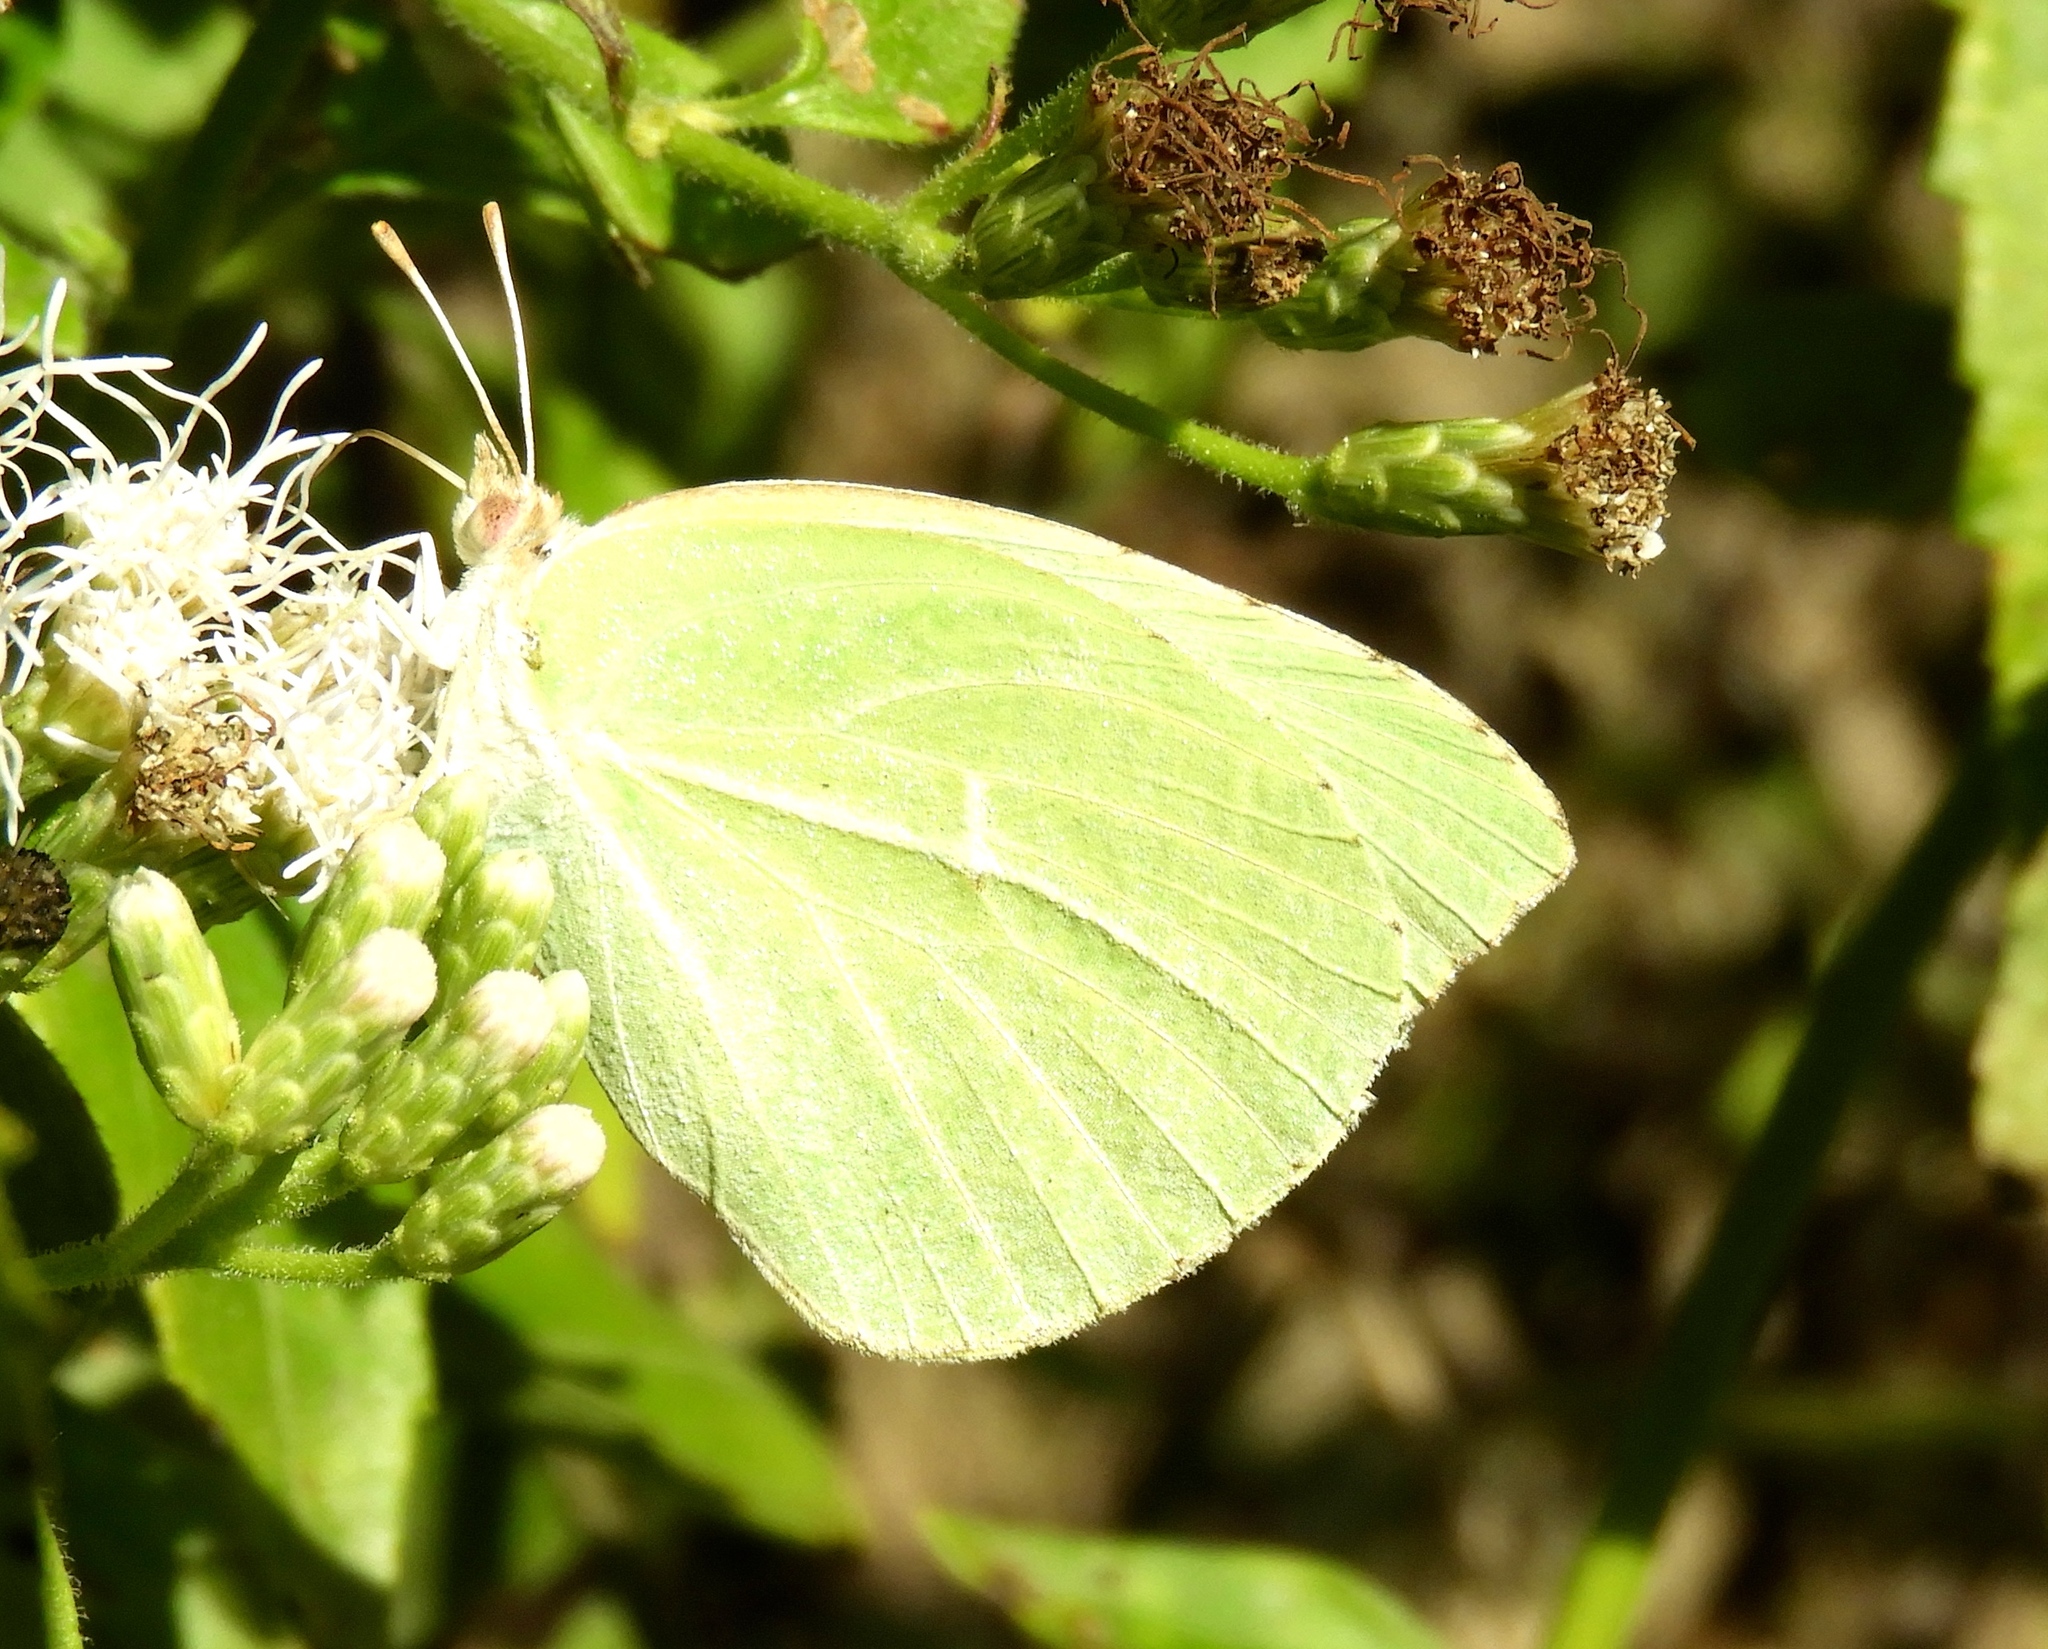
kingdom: Animalia
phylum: Arthropoda
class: Insecta
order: Lepidoptera
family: Pieridae
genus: Kricogonia
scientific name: Kricogonia lyside
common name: Guayacan sulphur,
